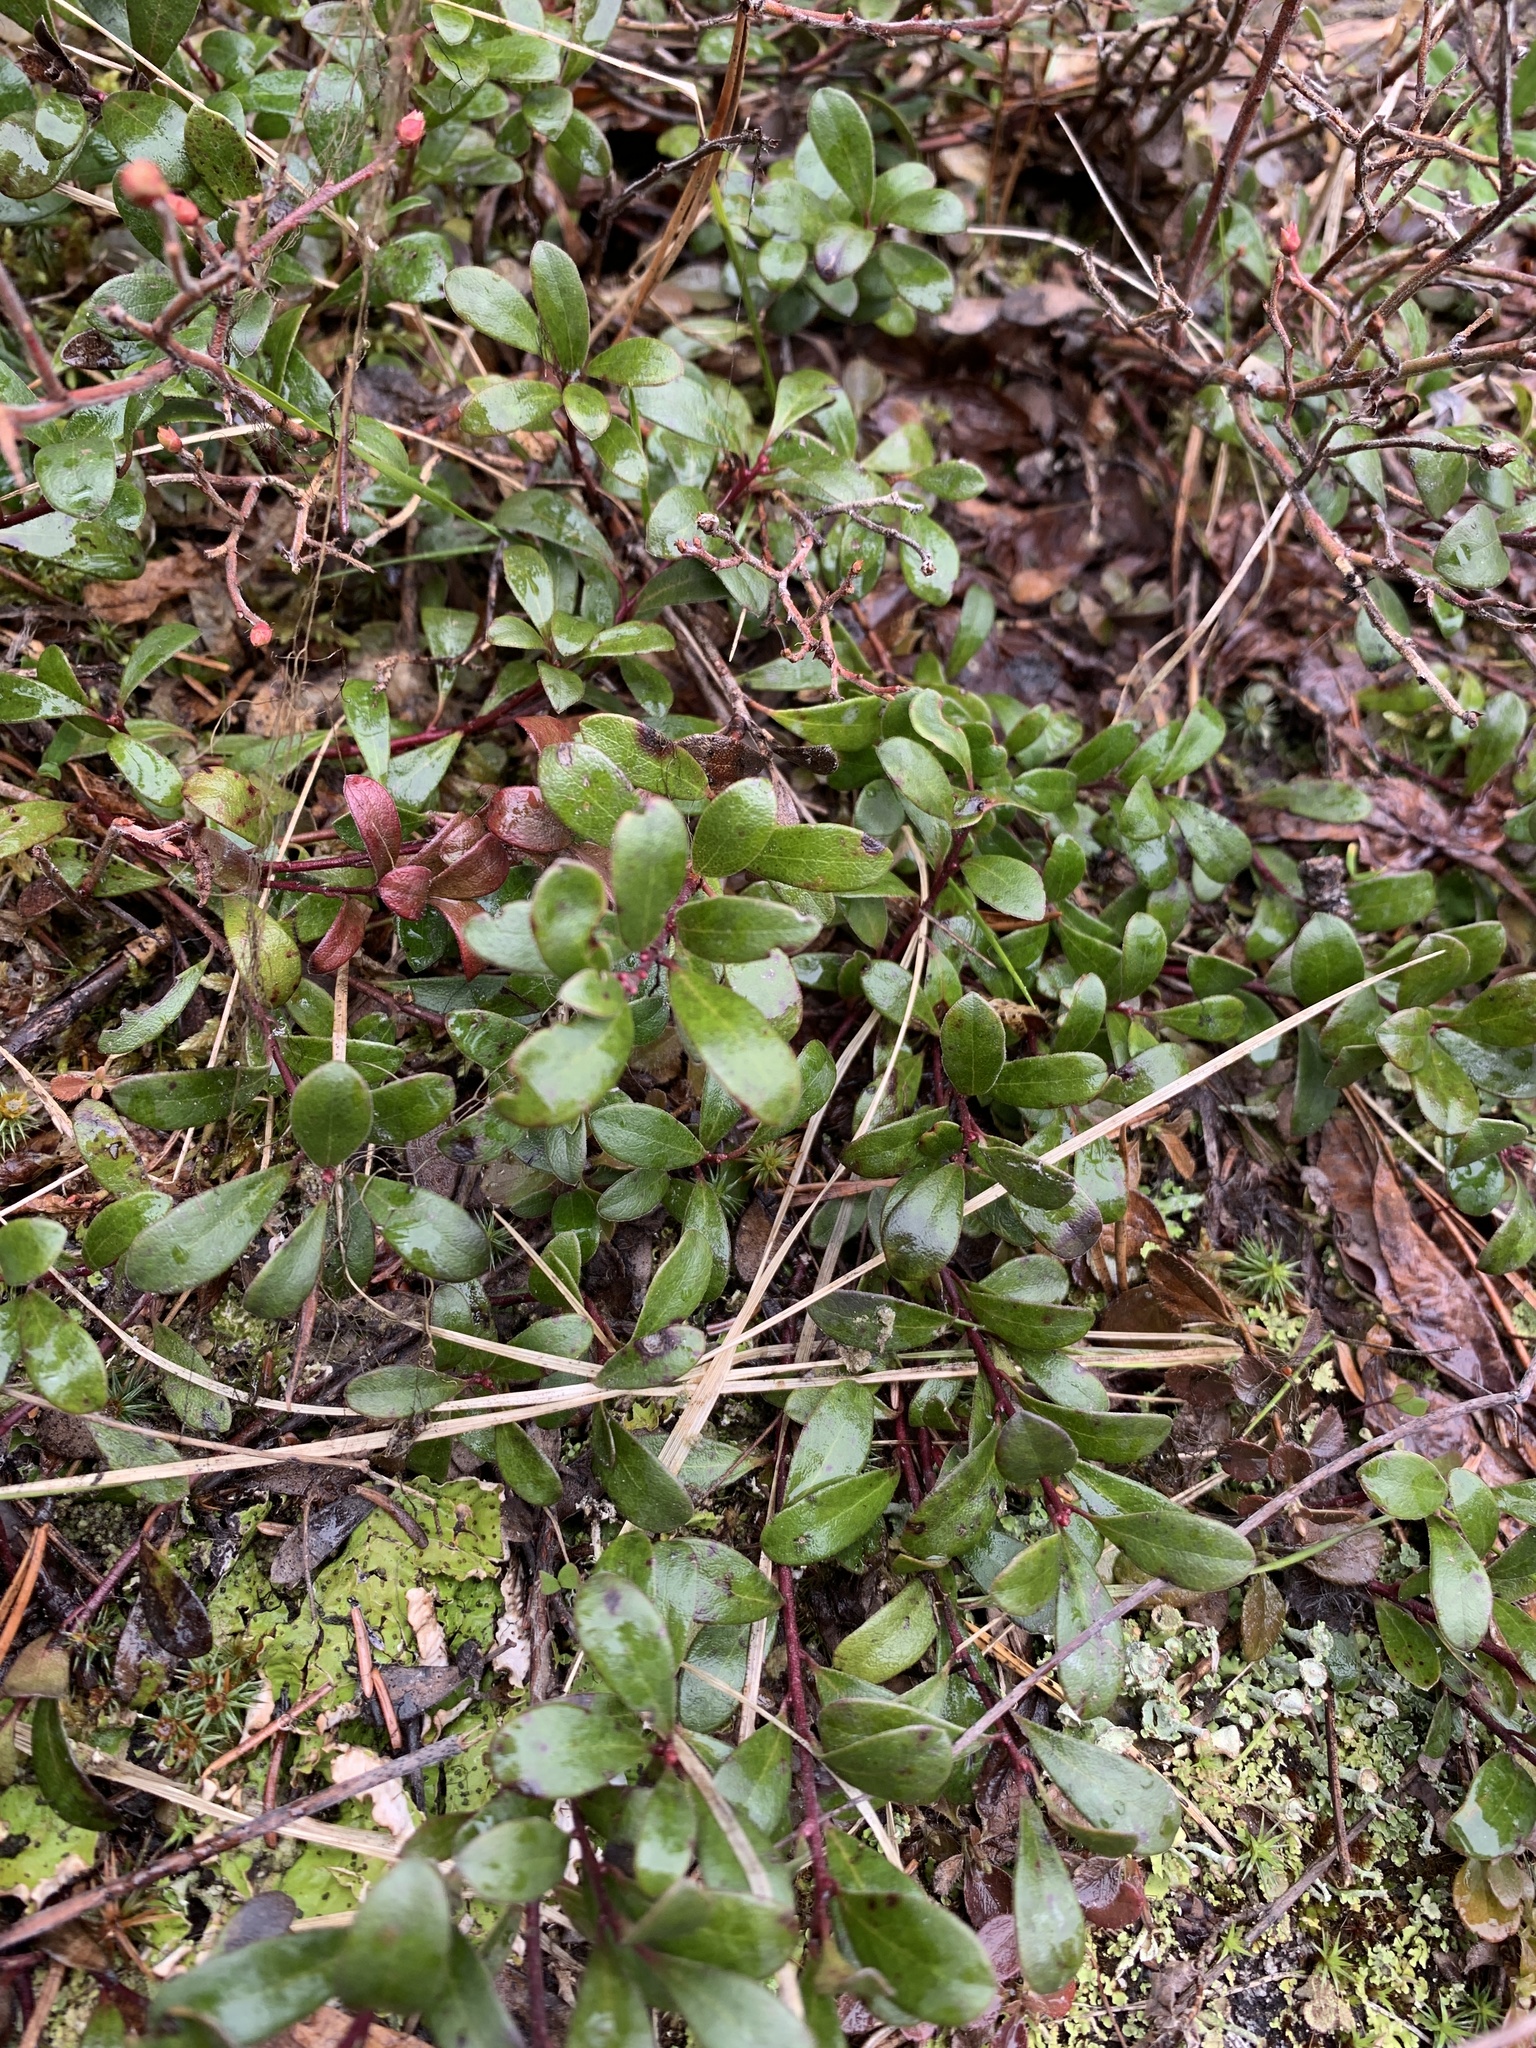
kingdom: Plantae
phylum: Tracheophyta
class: Magnoliopsida
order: Ericales
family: Ericaceae
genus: Arctostaphylos
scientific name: Arctostaphylos uva-ursi
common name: Bearberry
